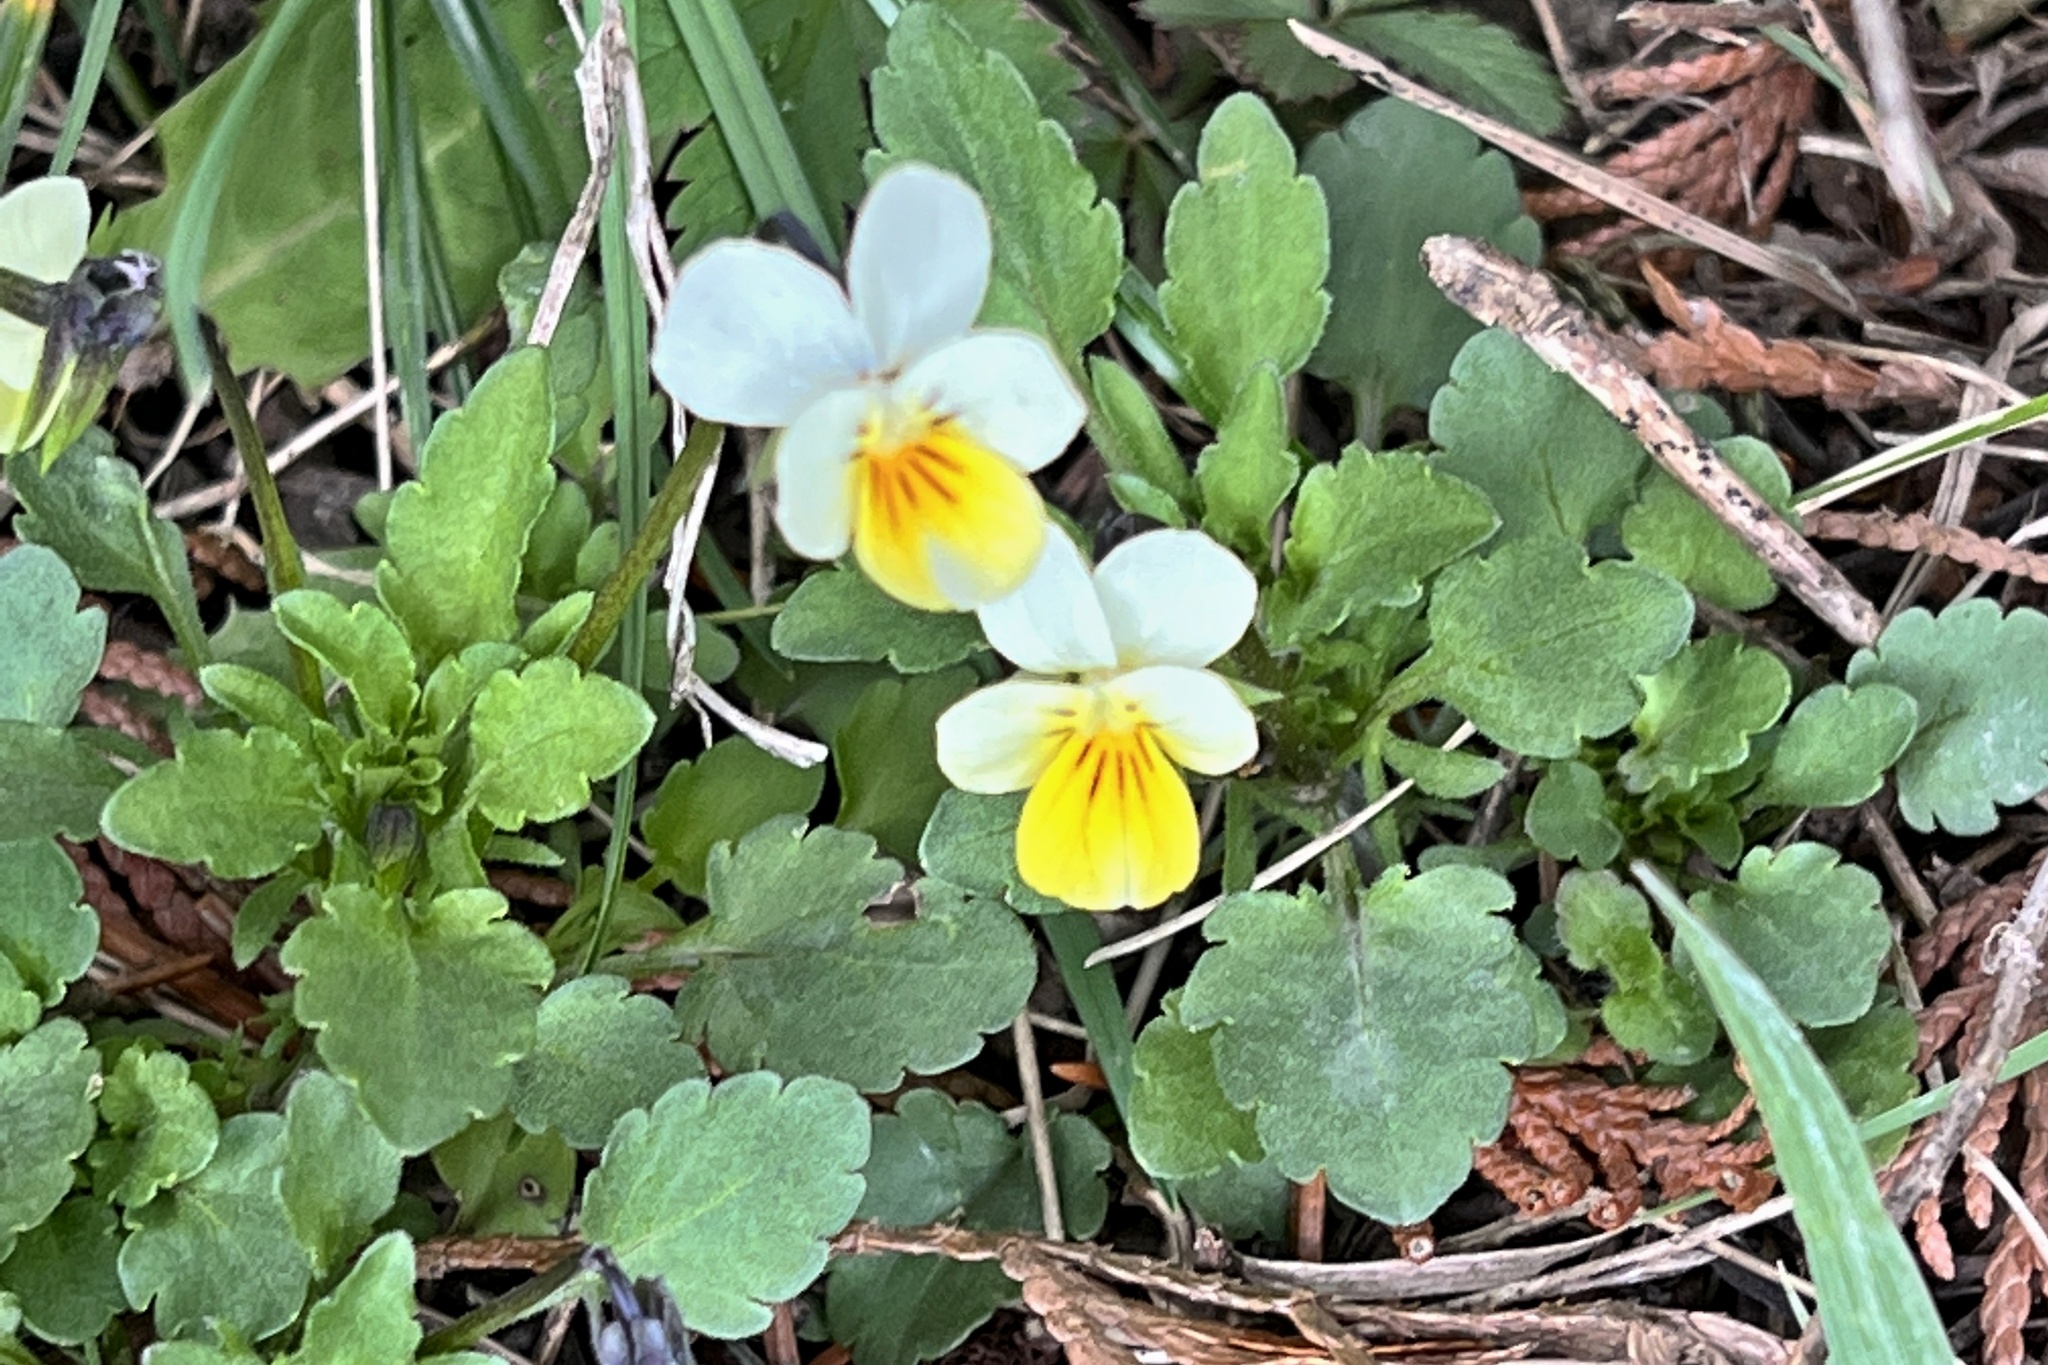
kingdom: Plantae
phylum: Tracheophyta
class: Magnoliopsida
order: Malpighiales
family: Violaceae
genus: Viola
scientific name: Viola arvensis
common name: Field pansy
